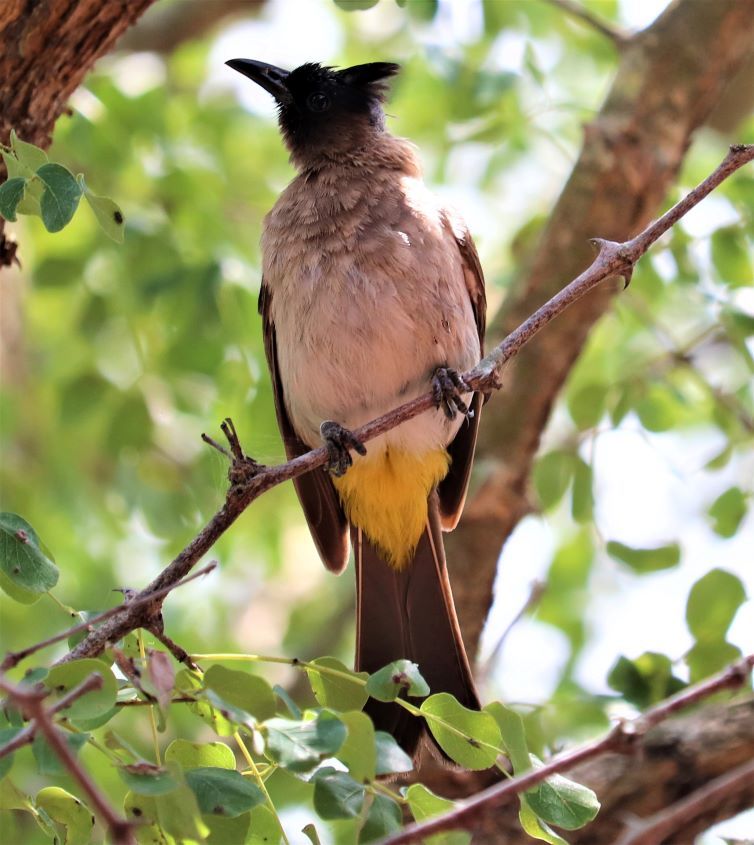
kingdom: Animalia
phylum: Chordata
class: Aves
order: Passeriformes
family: Pycnonotidae
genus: Pycnonotus
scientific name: Pycnonotus barbatus
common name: Common bulbul
